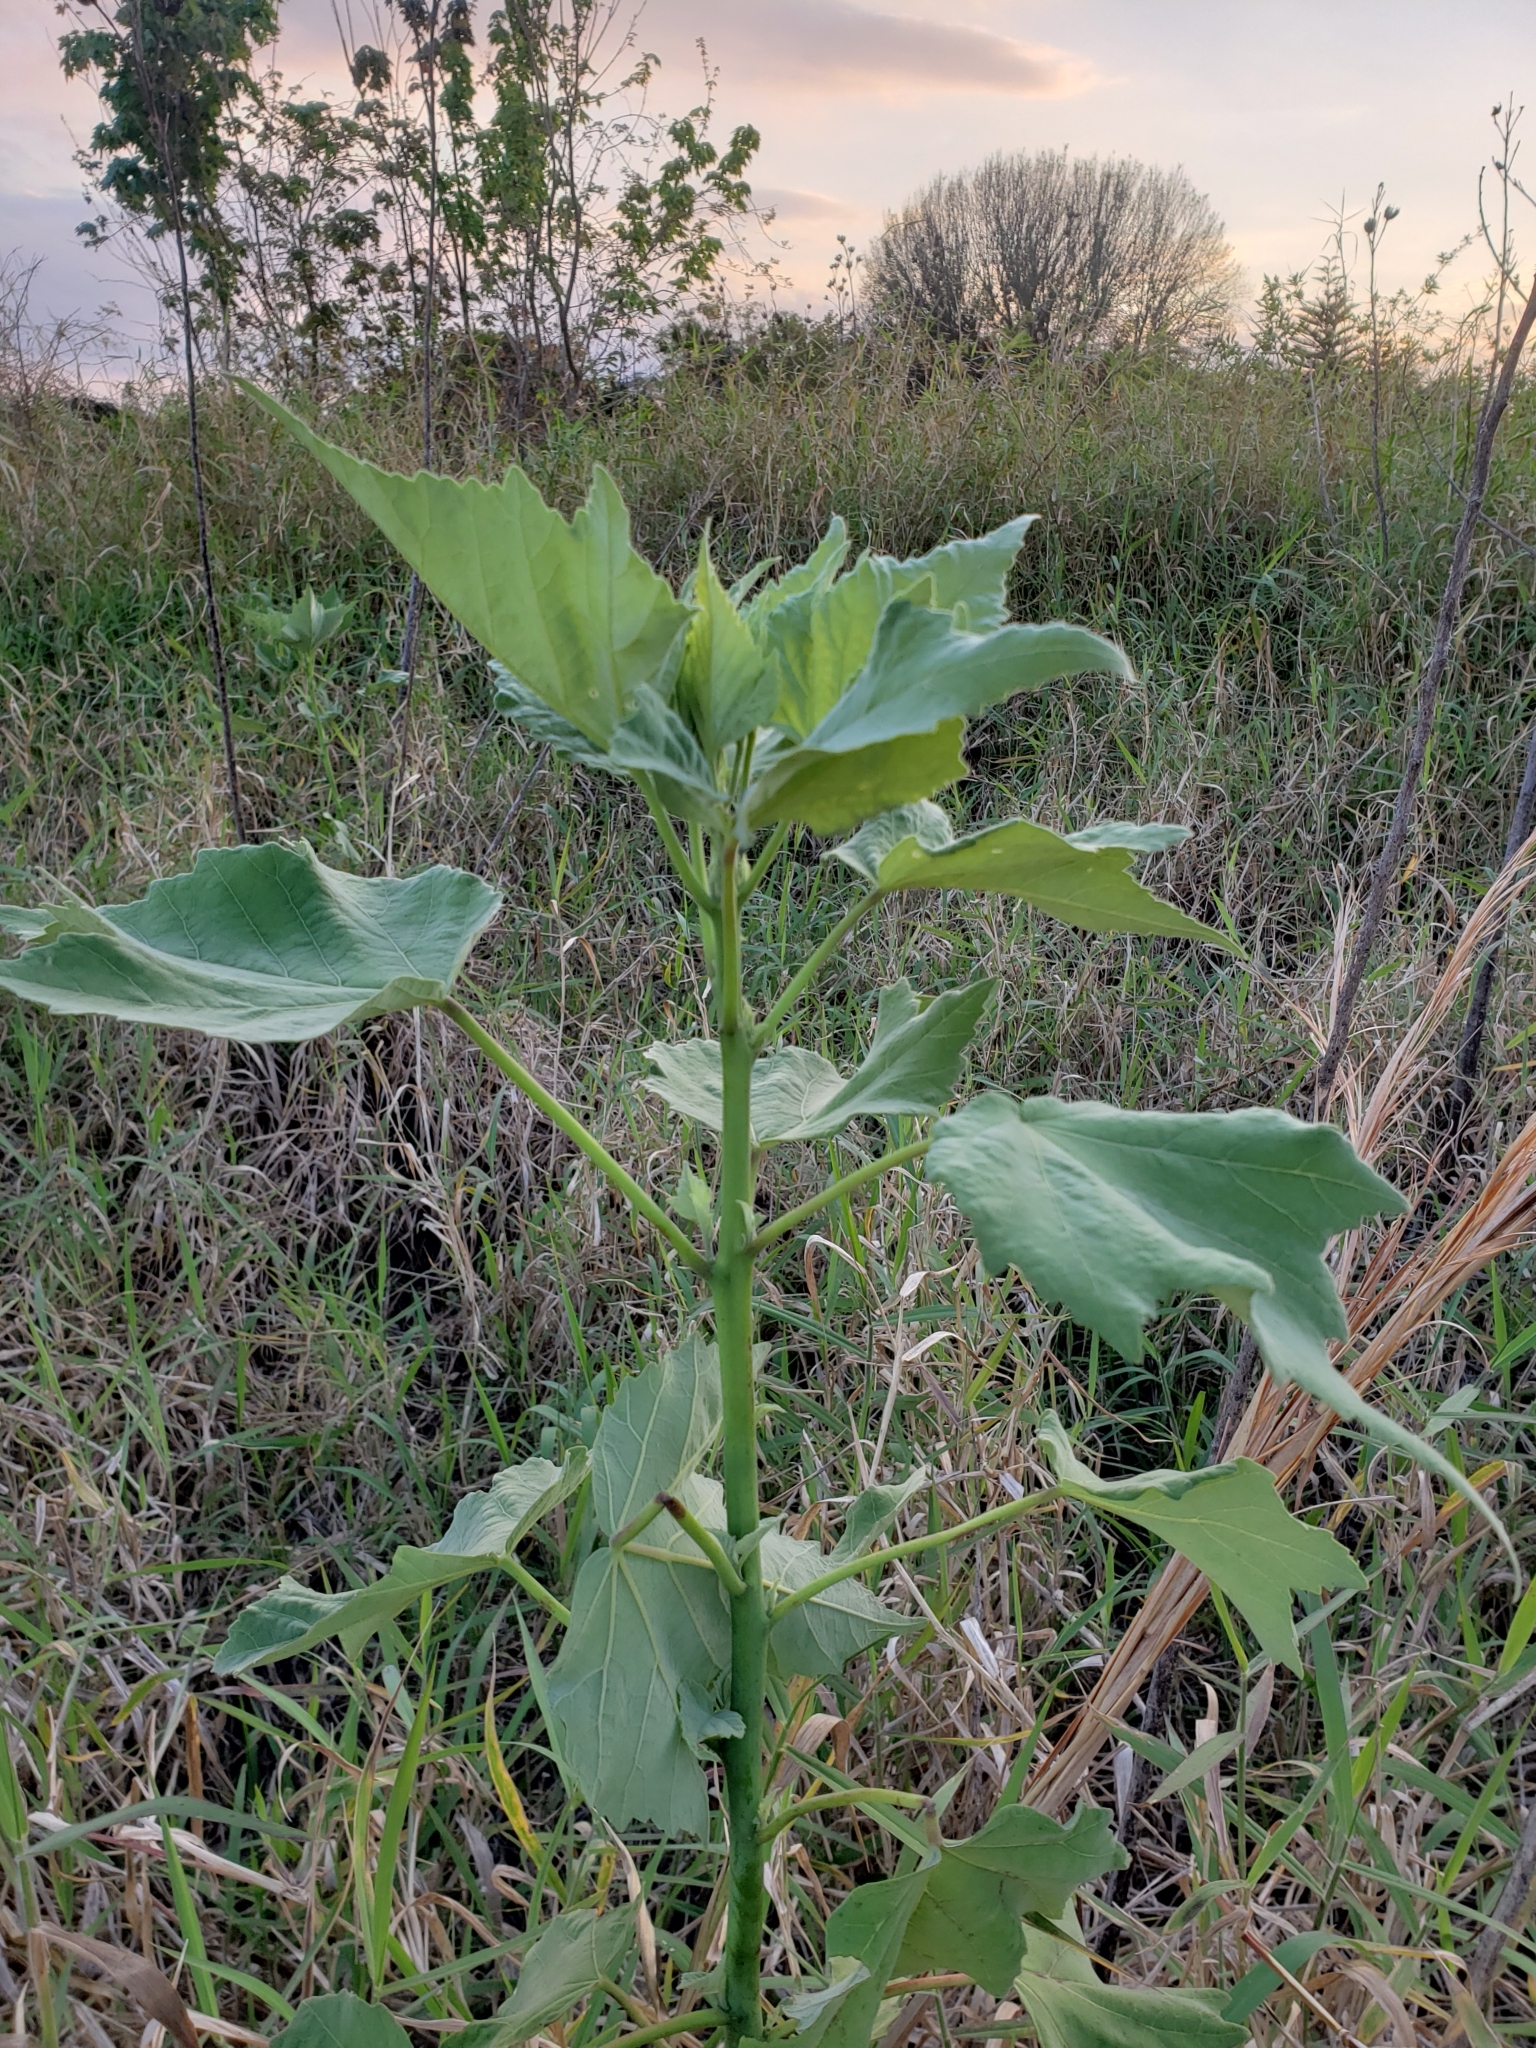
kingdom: Plantae
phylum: Tracheophyta
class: Magnoliopsida
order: Malvales
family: Malvaceae
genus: Hibiscus
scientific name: Hibiscus grandiflorus
